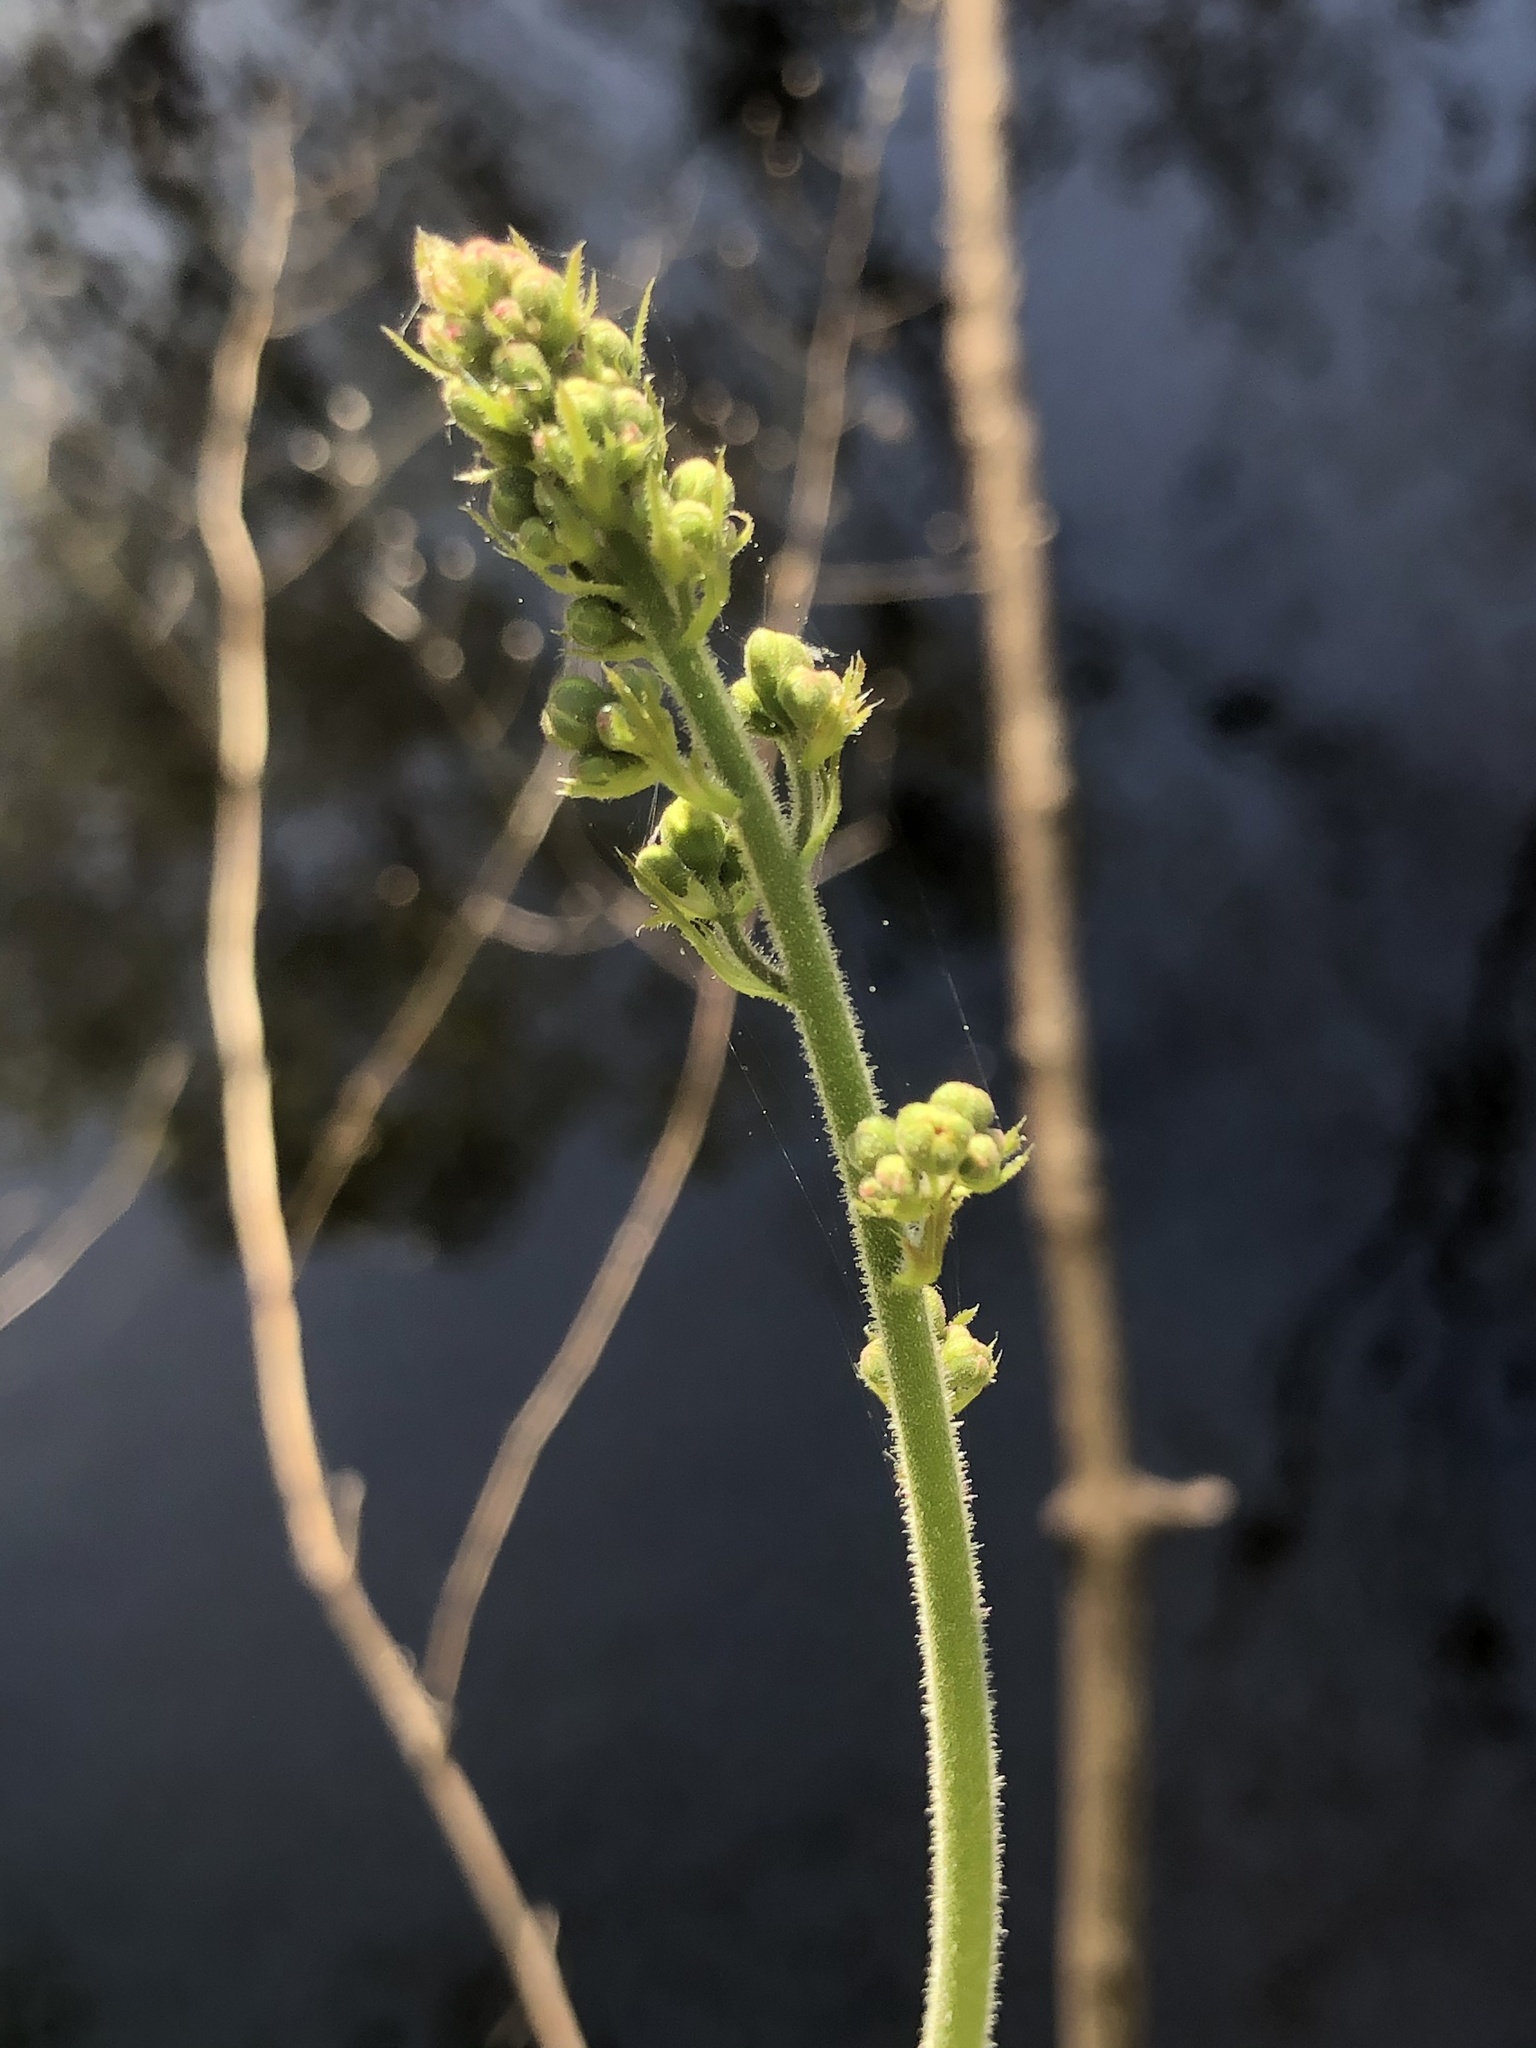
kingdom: Plantae
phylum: Tracheophyta
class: Magnoliopsida
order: Saxifragales
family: Saxifragaceae
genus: Heuchera
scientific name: Heuchera americana
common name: Alumroot
